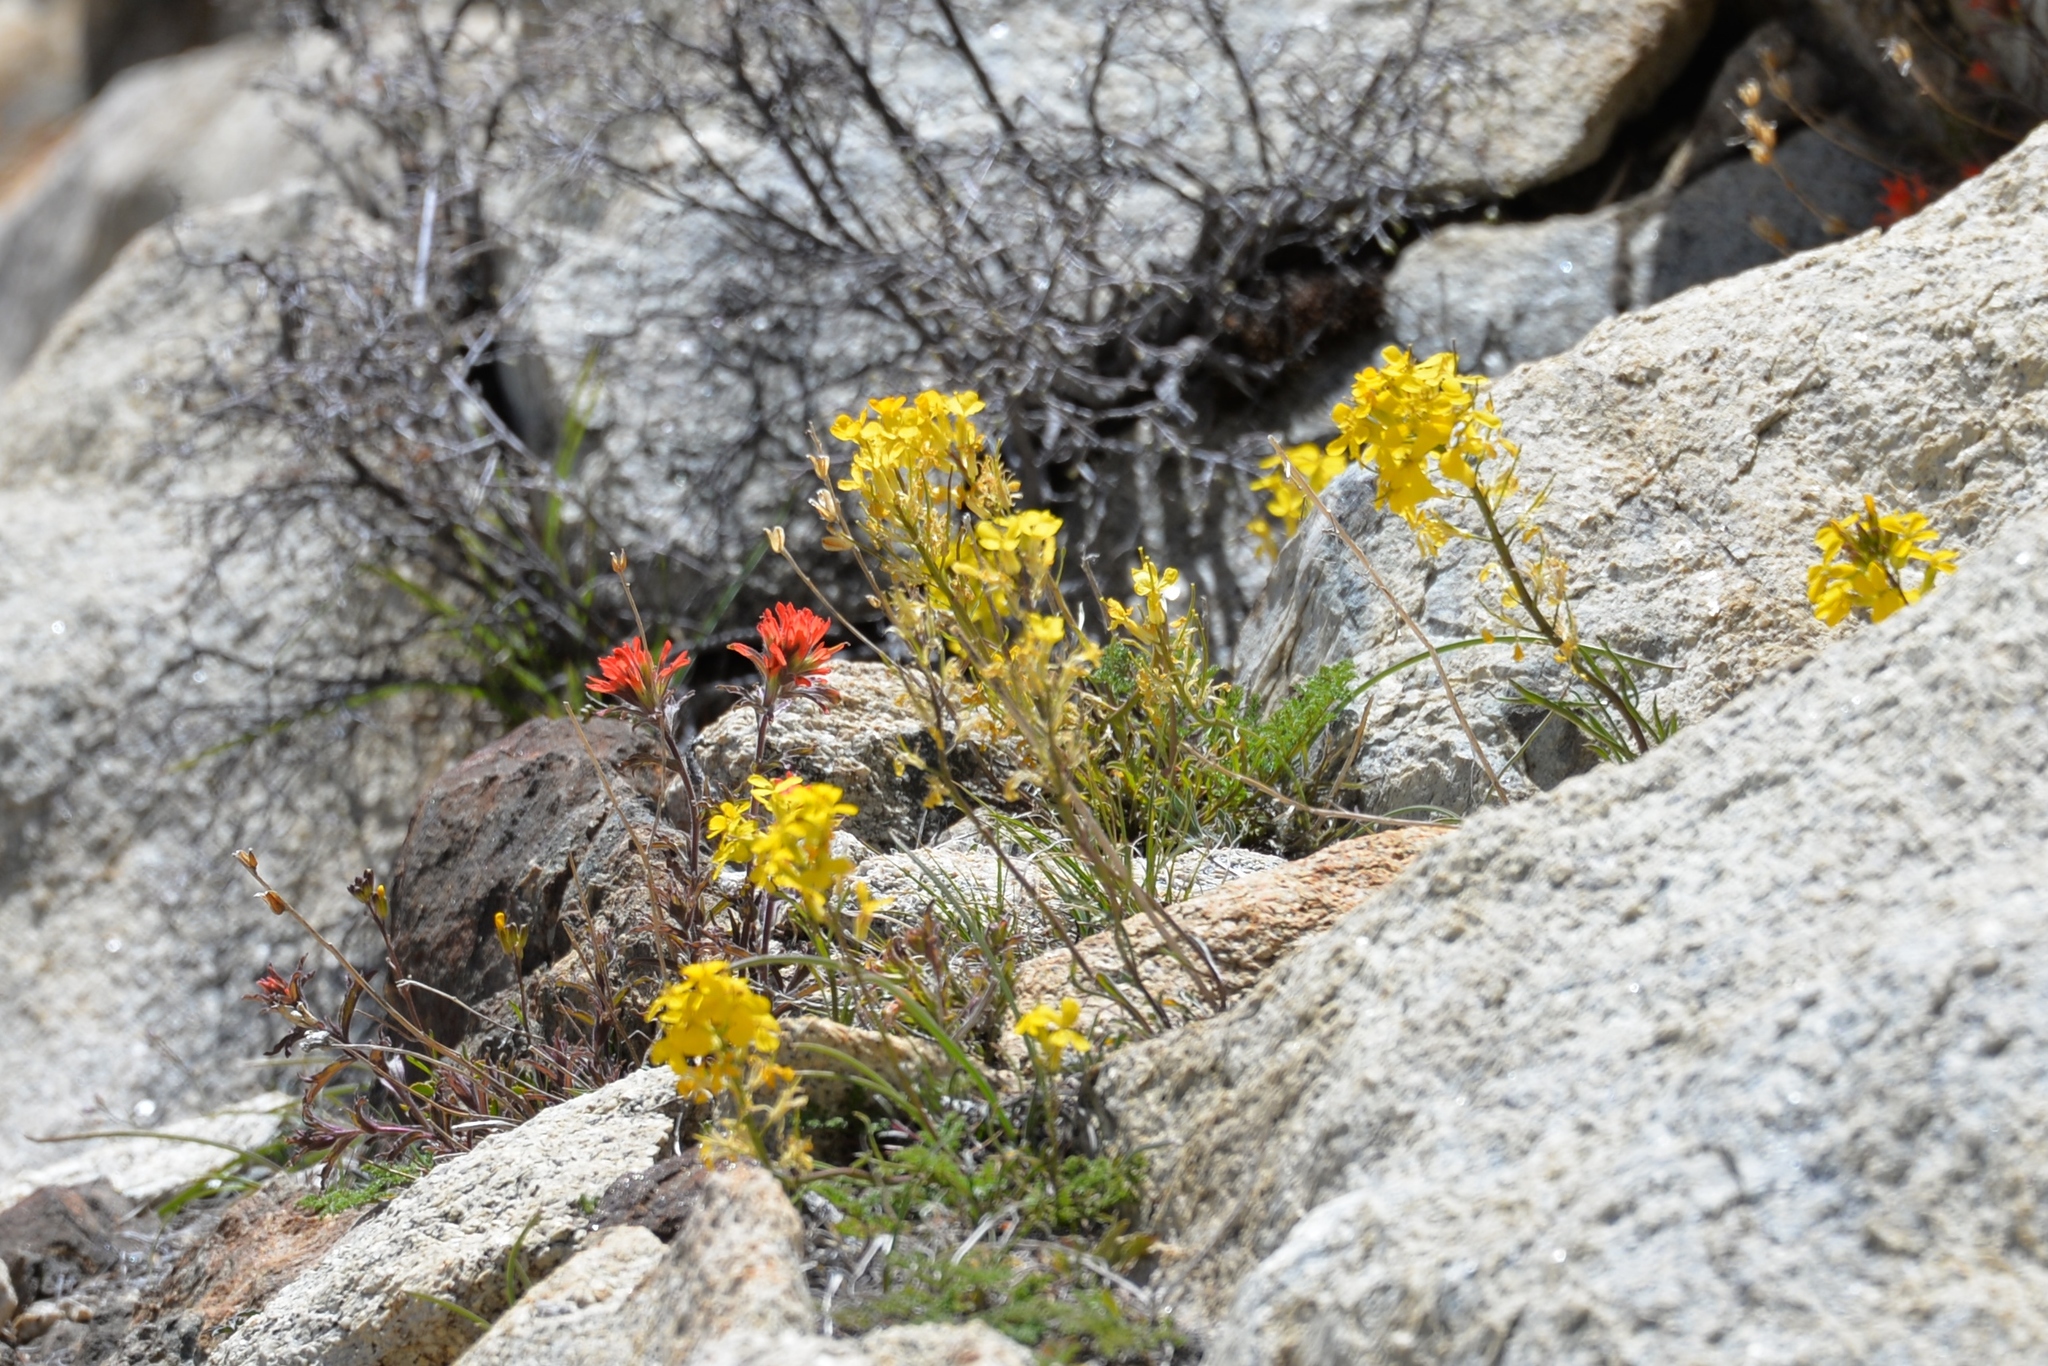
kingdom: Plantae
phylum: Tracheophyta
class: Magnoliopsida
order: Brassicales
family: Brassicaceae
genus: Erysimum
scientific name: Erysimum capitatum
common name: Western wallflower
